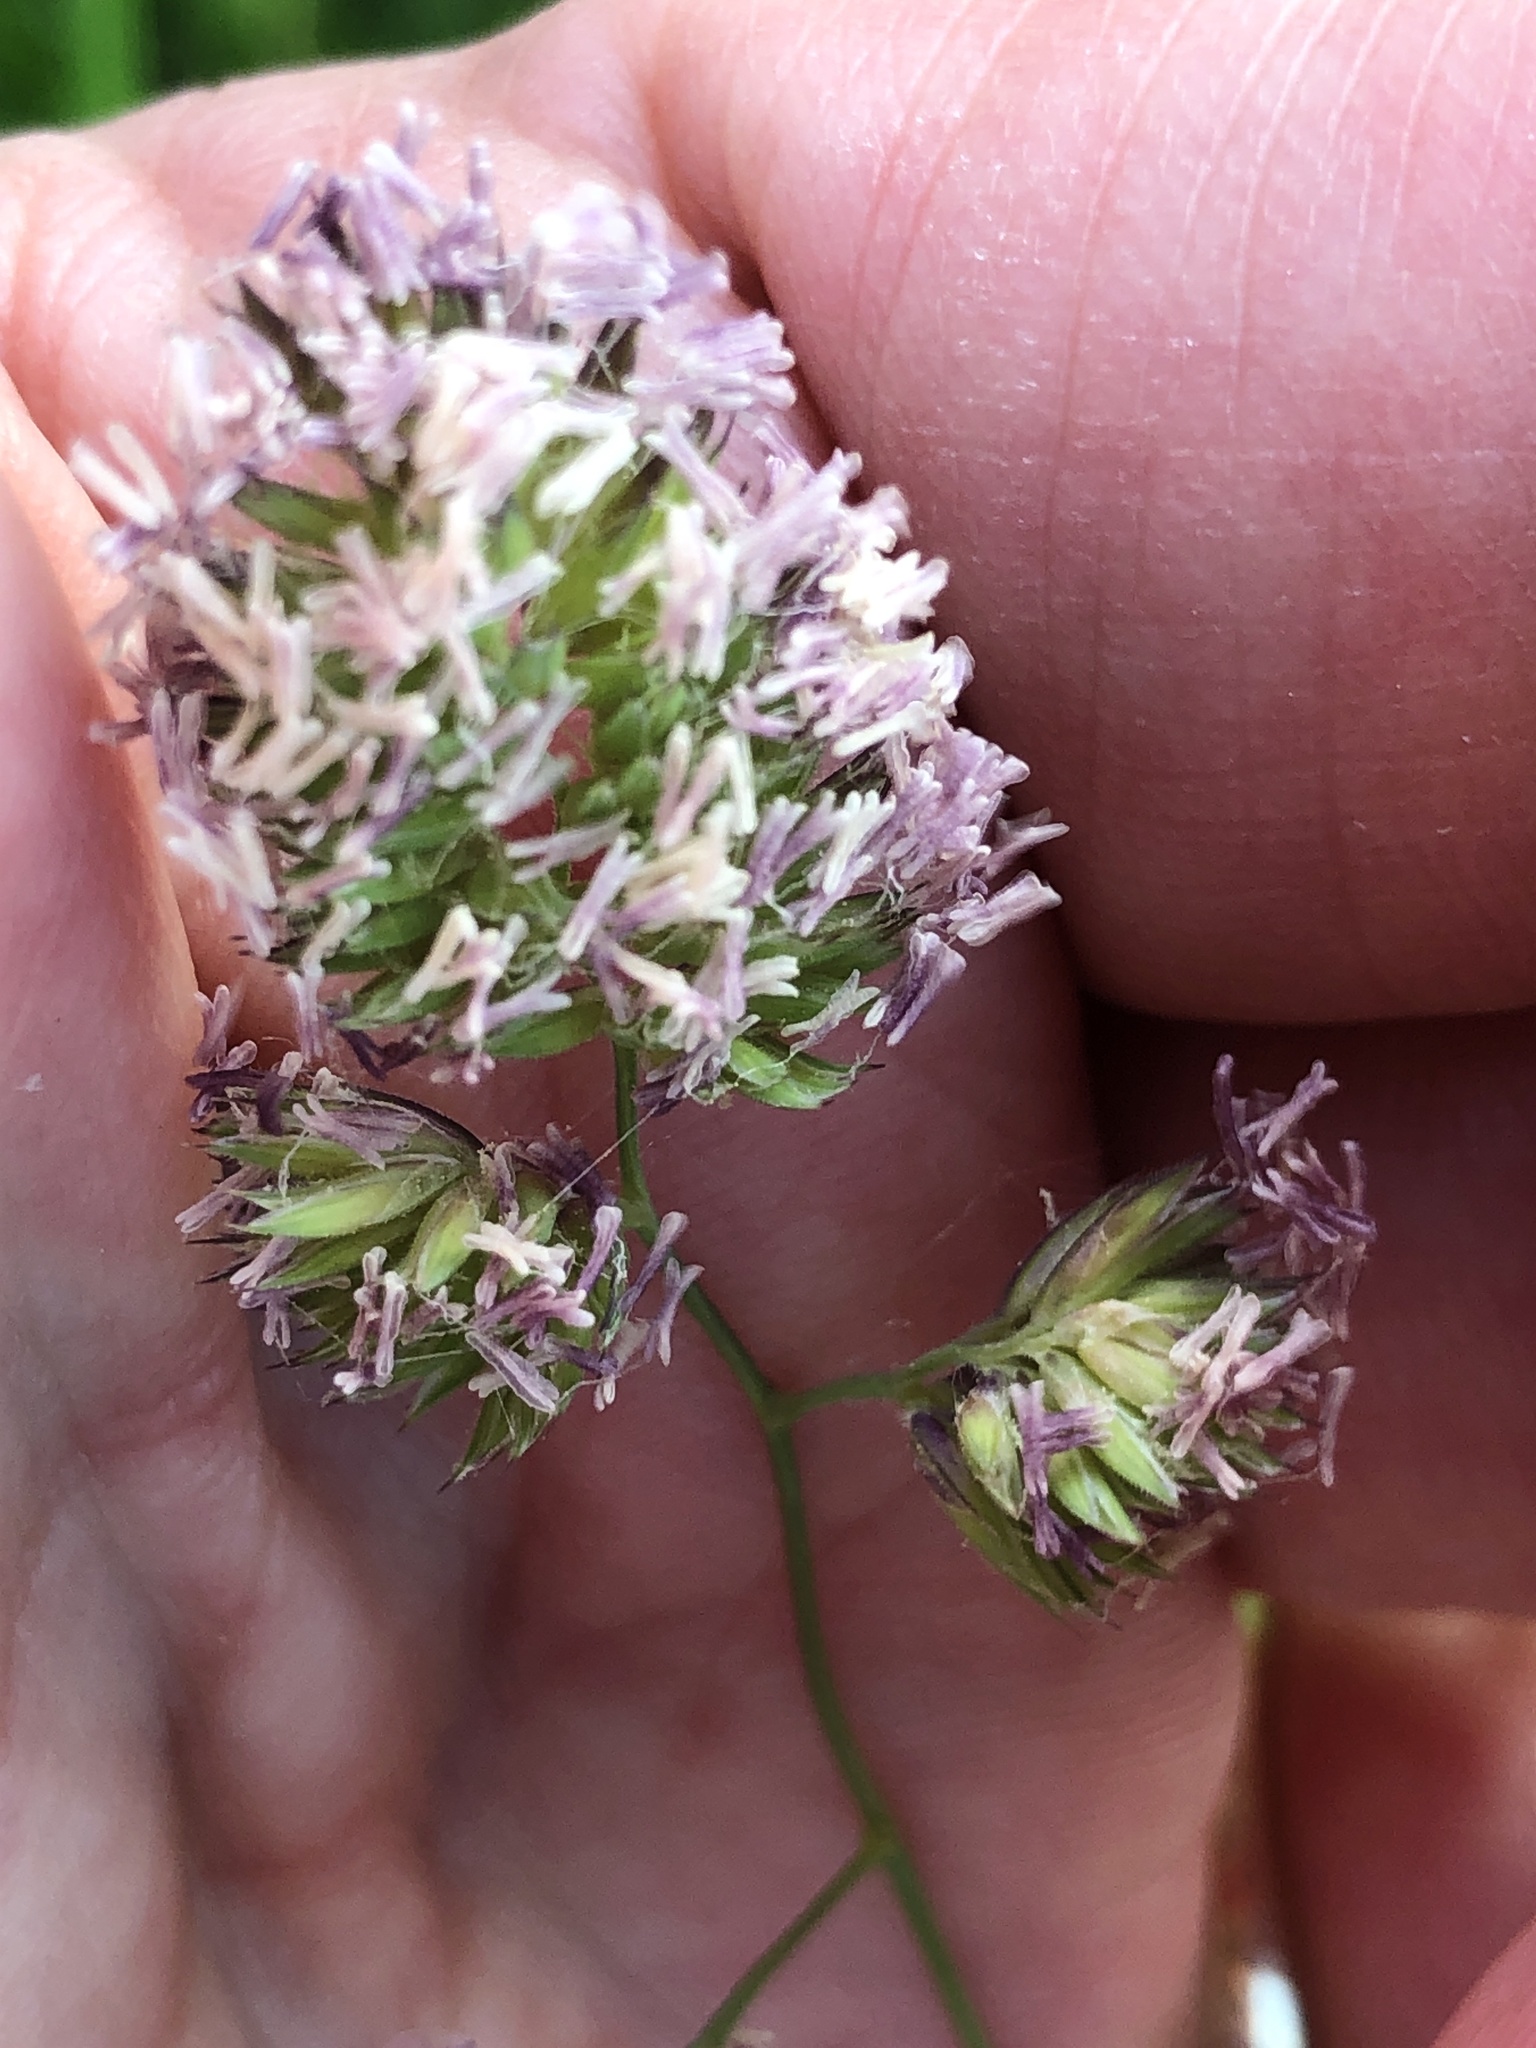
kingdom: Plantae
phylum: Tracheophyta
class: Liliopsida
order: Poales
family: Poaceae
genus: Dactylis
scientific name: Dactylis glomerata
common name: Orchardgrass
